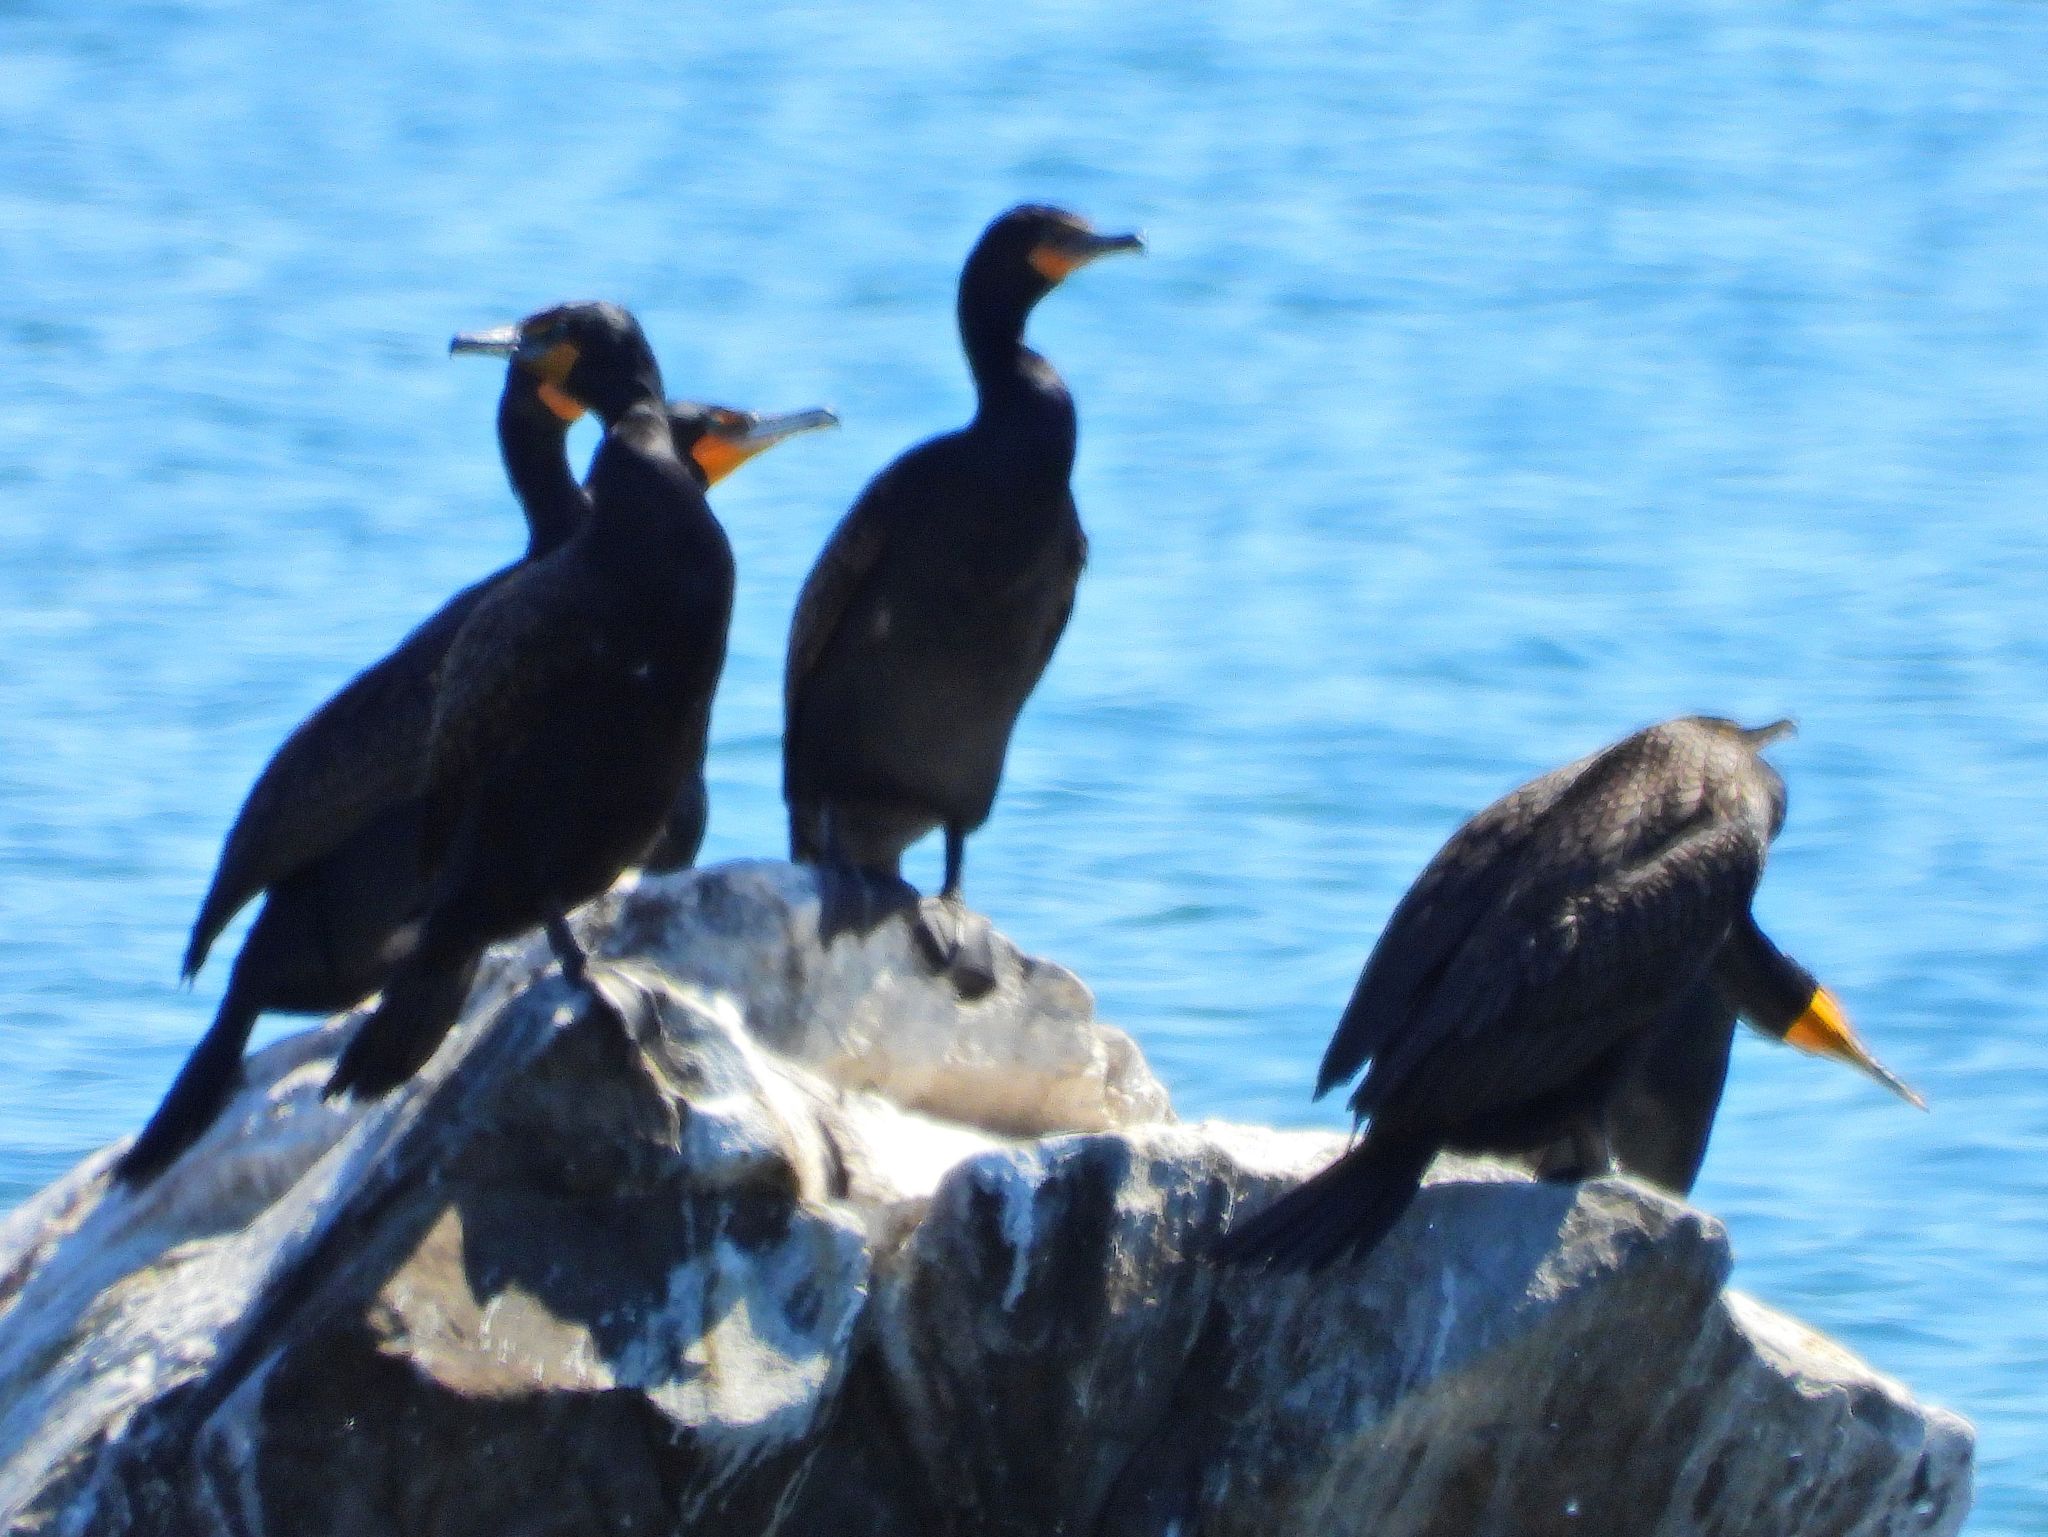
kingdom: Animalia
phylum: Chordata
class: Aves
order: Suliformes
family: Phalacrocoracidae
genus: Phalacrocorax
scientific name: Phalacrocorax auritus
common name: Double-crested cormorant
